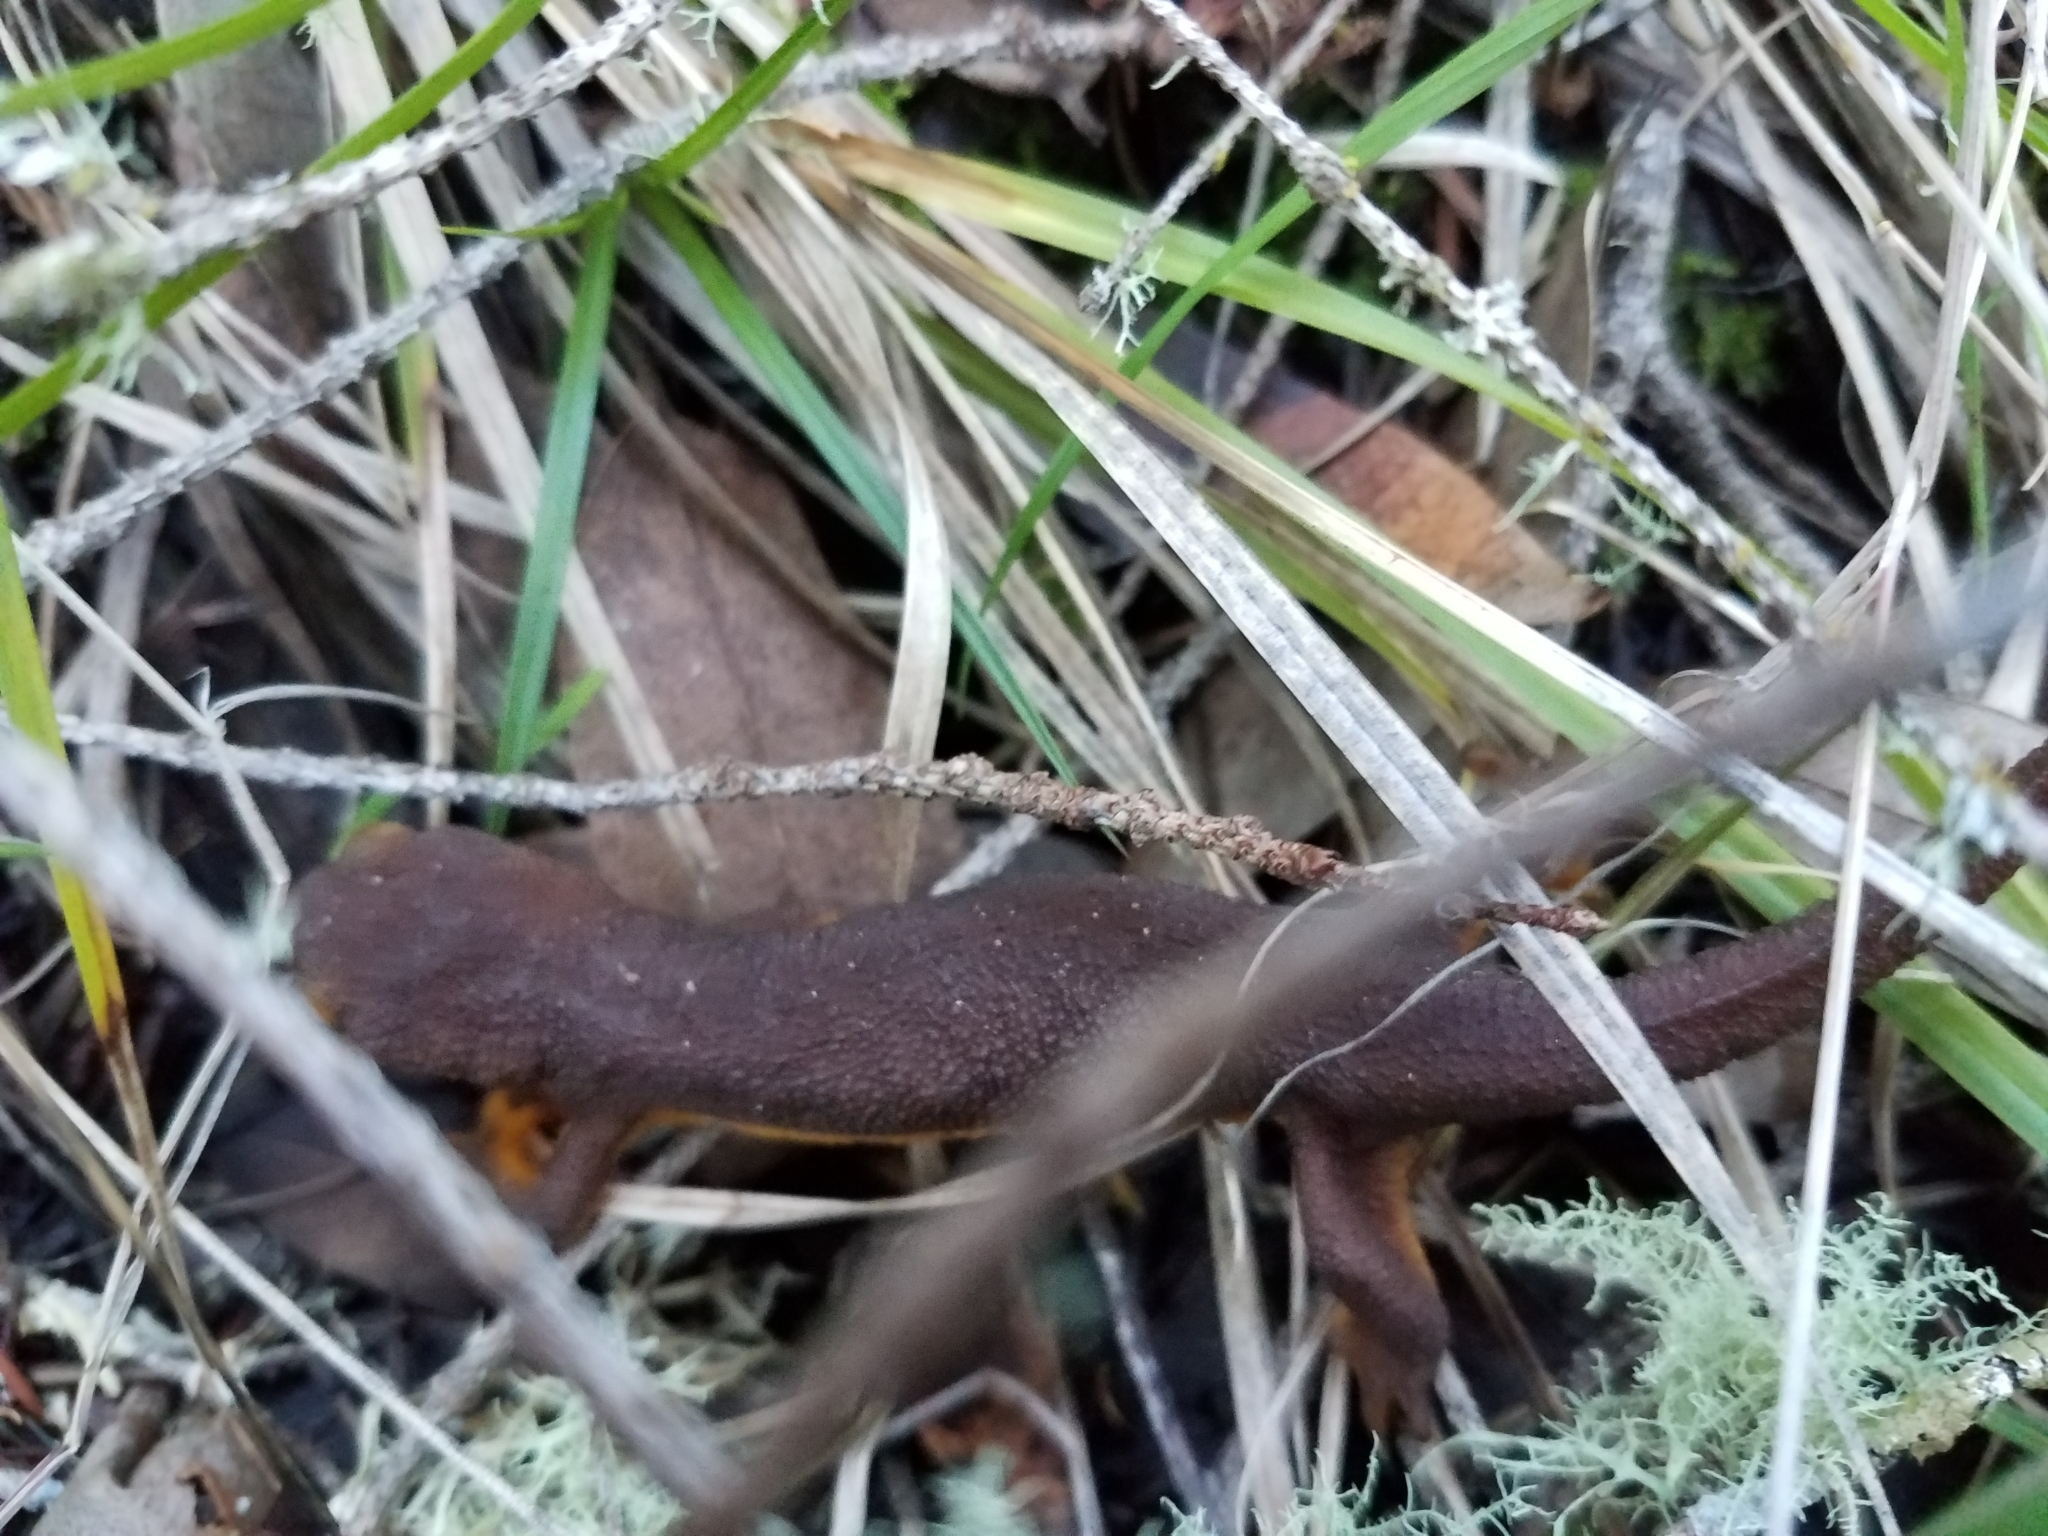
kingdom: Animalia
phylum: Chordata
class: Amphibia
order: Caudata
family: Salamandridae
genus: Taricha
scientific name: Taricha torosa
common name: California newt
